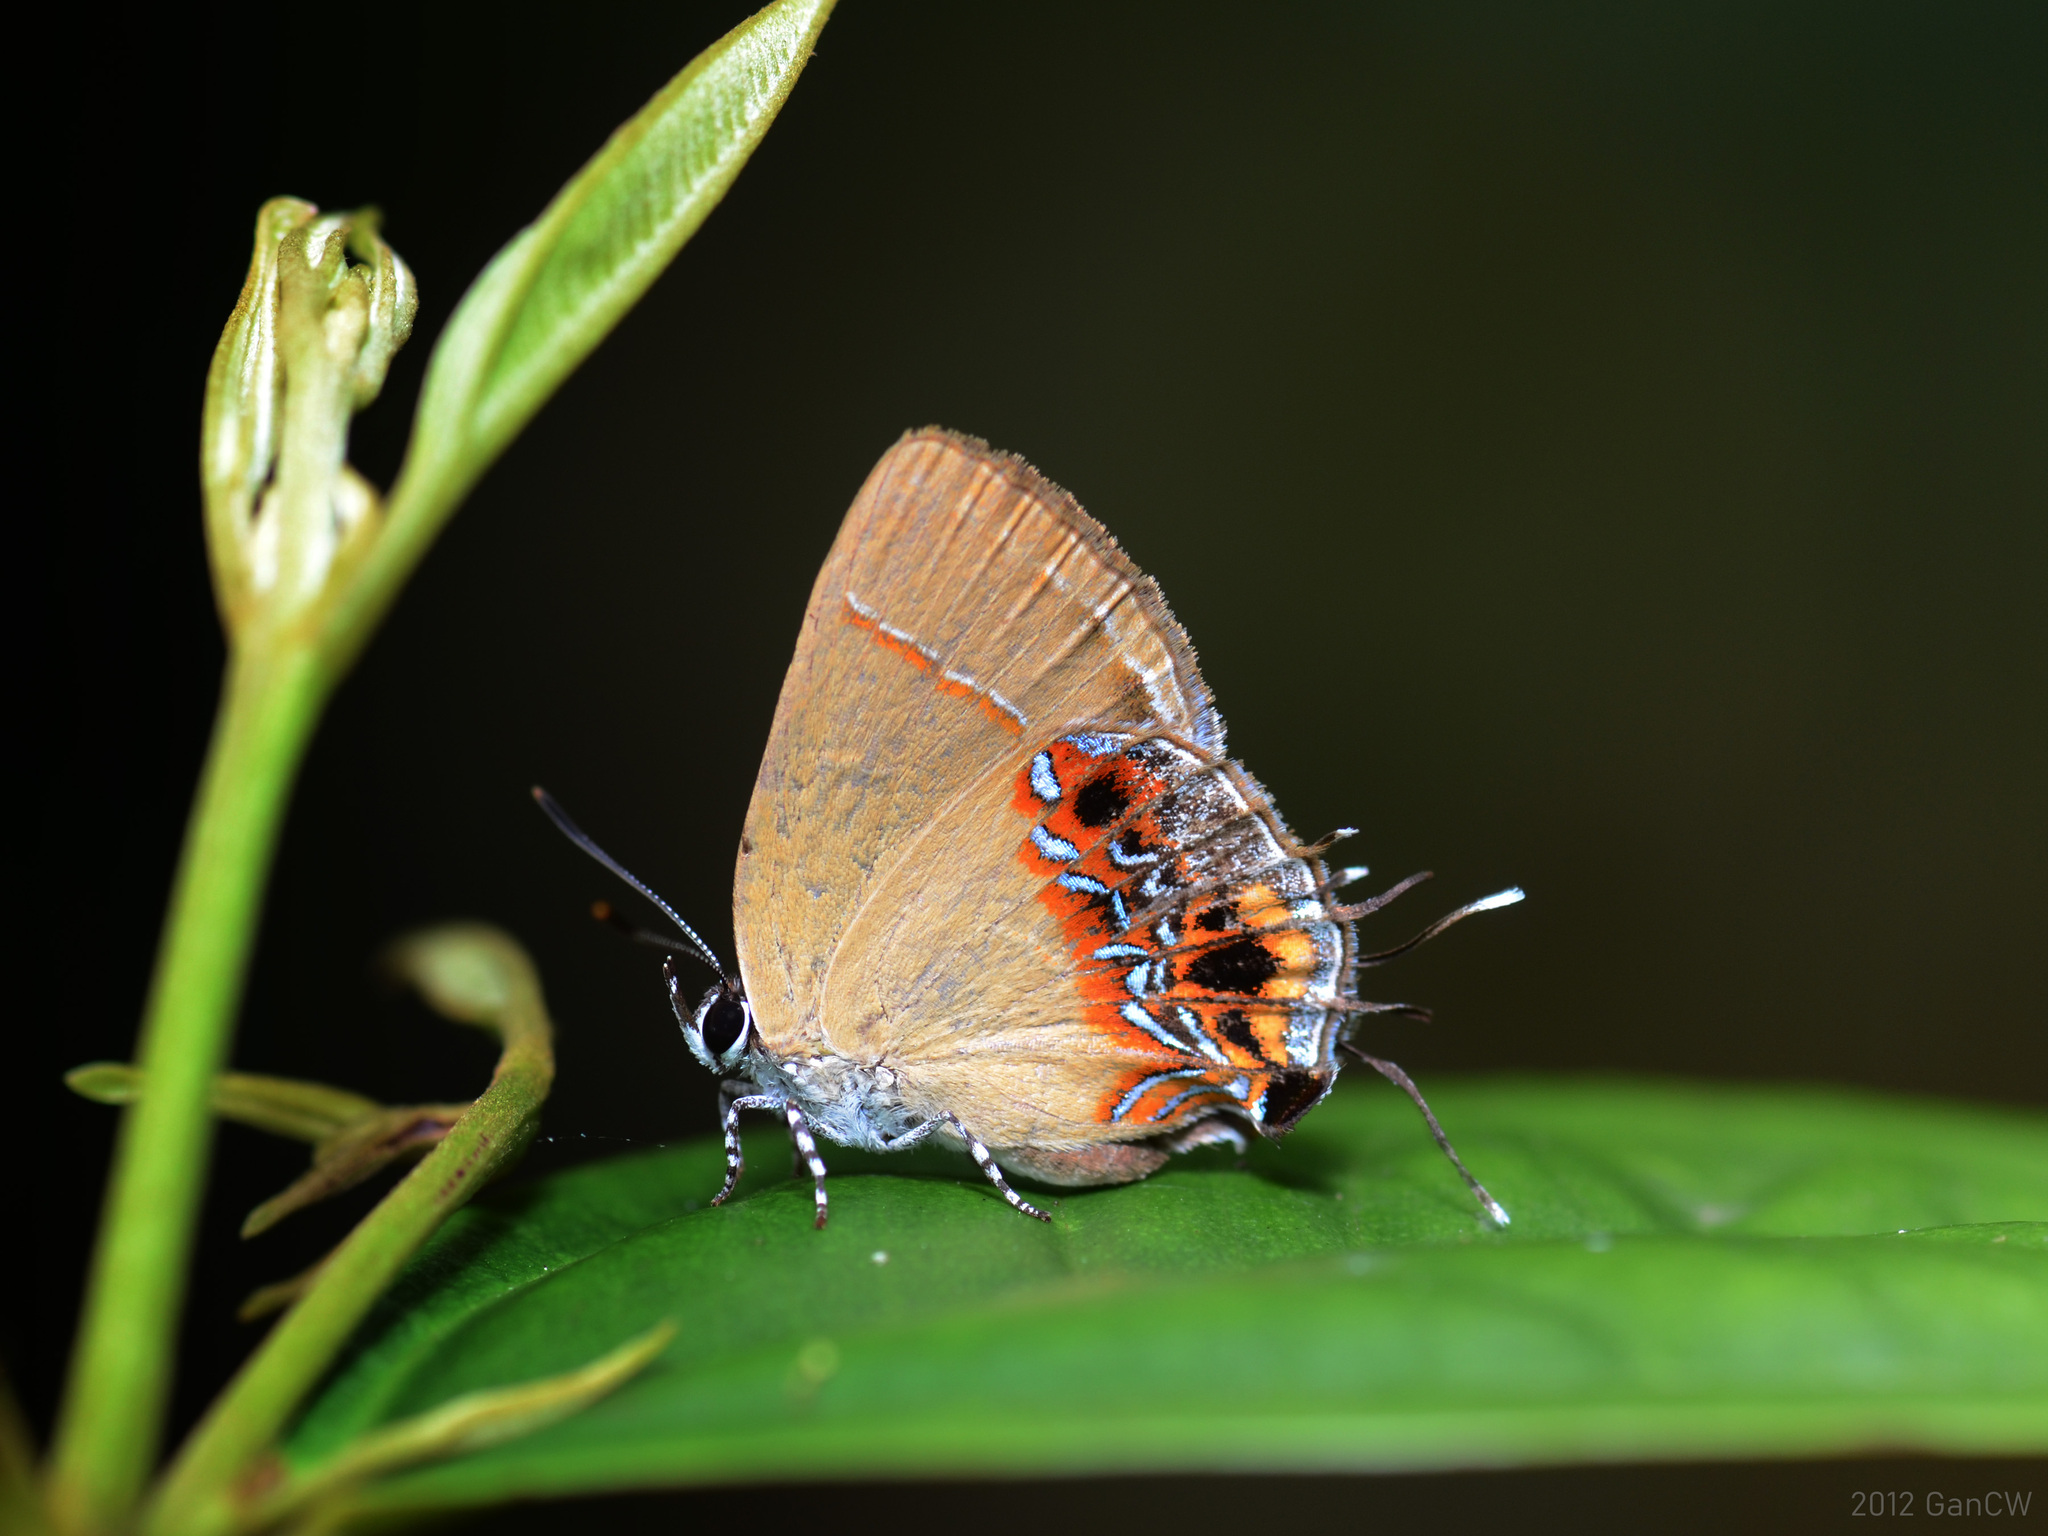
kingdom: Animalia
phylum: Arthropoda
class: Insecta
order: Lepidoptera
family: Lycaenidae
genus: Semanga
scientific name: Semanga superba
